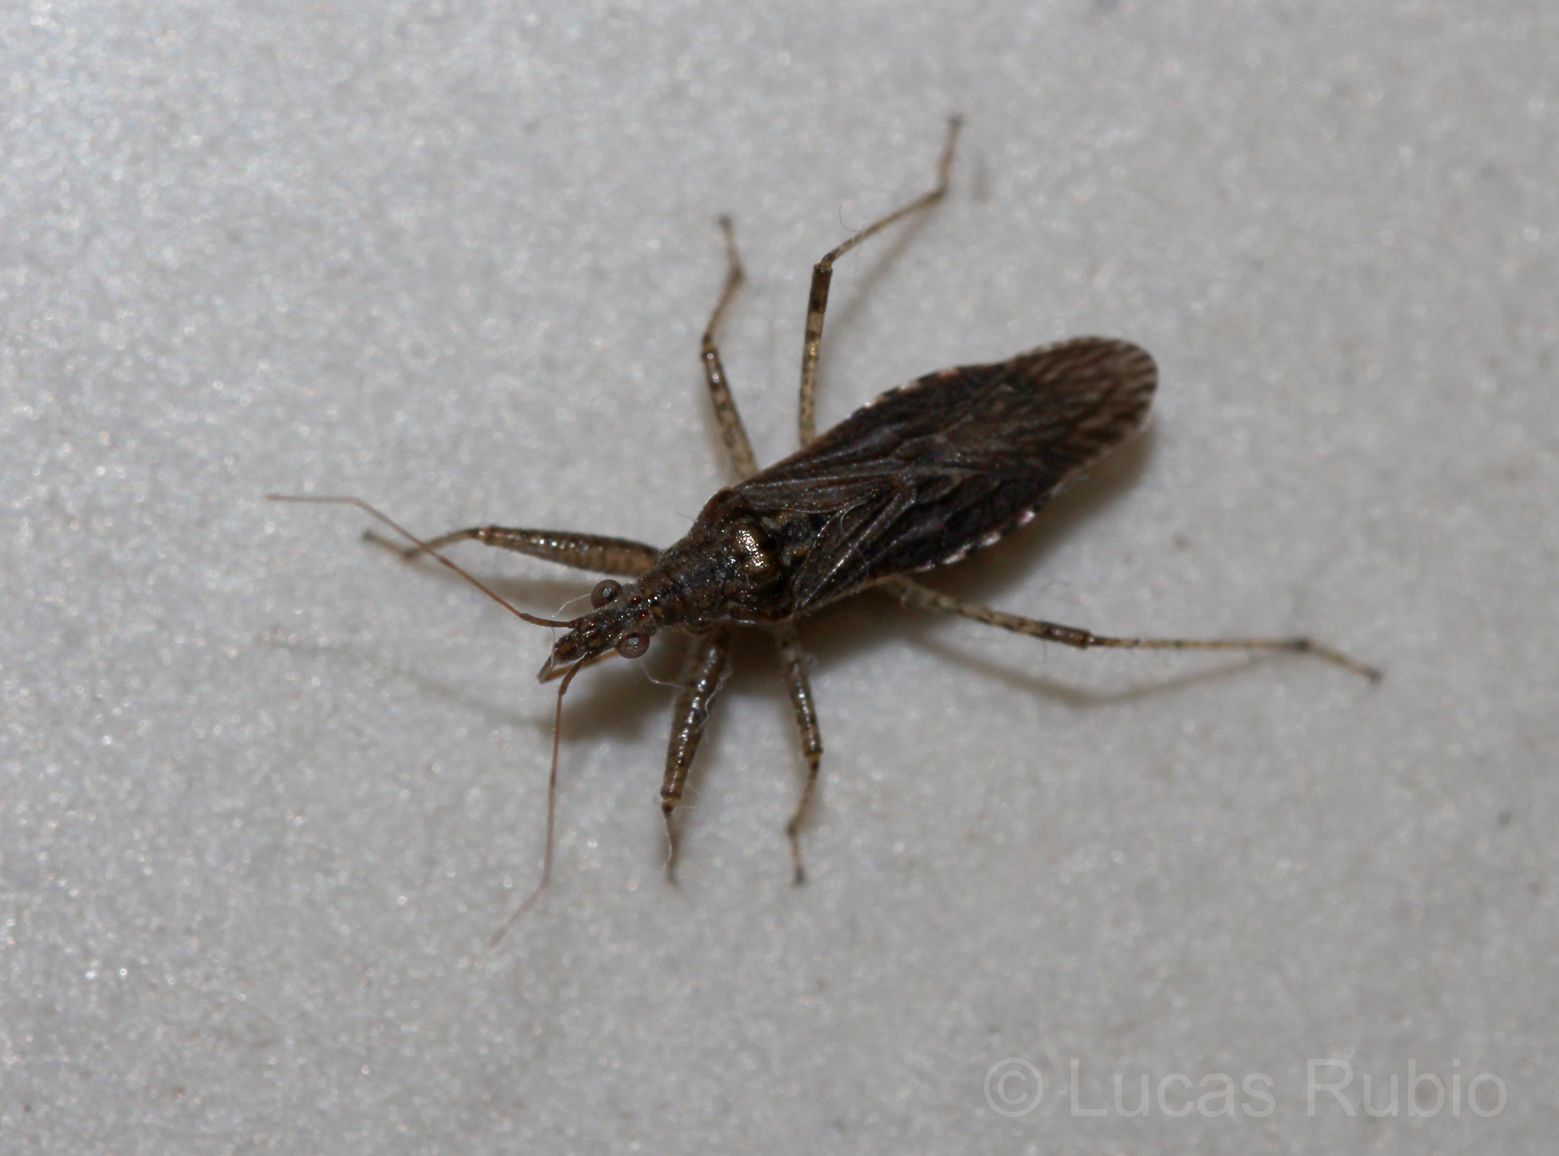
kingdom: Animalia
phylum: Arthropoda
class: Insecta
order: Hemiptera
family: Nabidae
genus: Nabis
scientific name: Nabis paranensis
